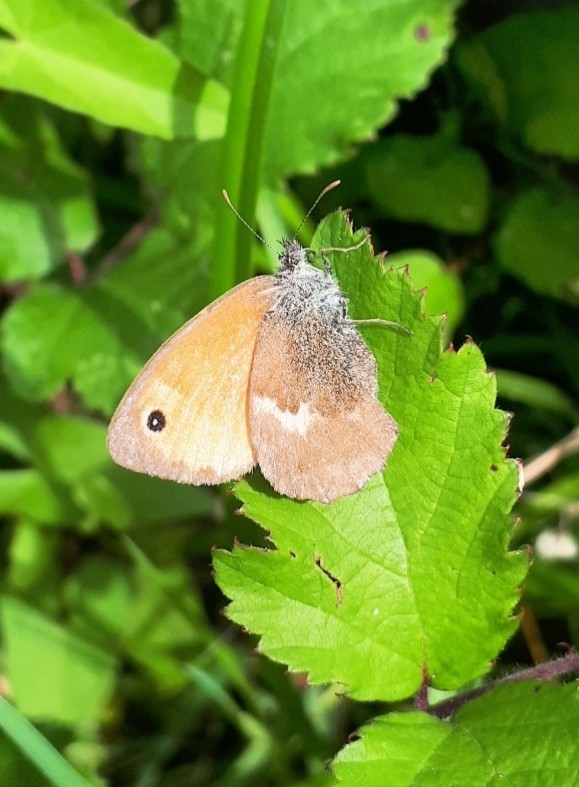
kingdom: Animalia
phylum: Arthropoda
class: Insecta
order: Lepidoptera
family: Nymphalidae
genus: Coenonympha
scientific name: Coenonympha pamphilus
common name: Small heath
